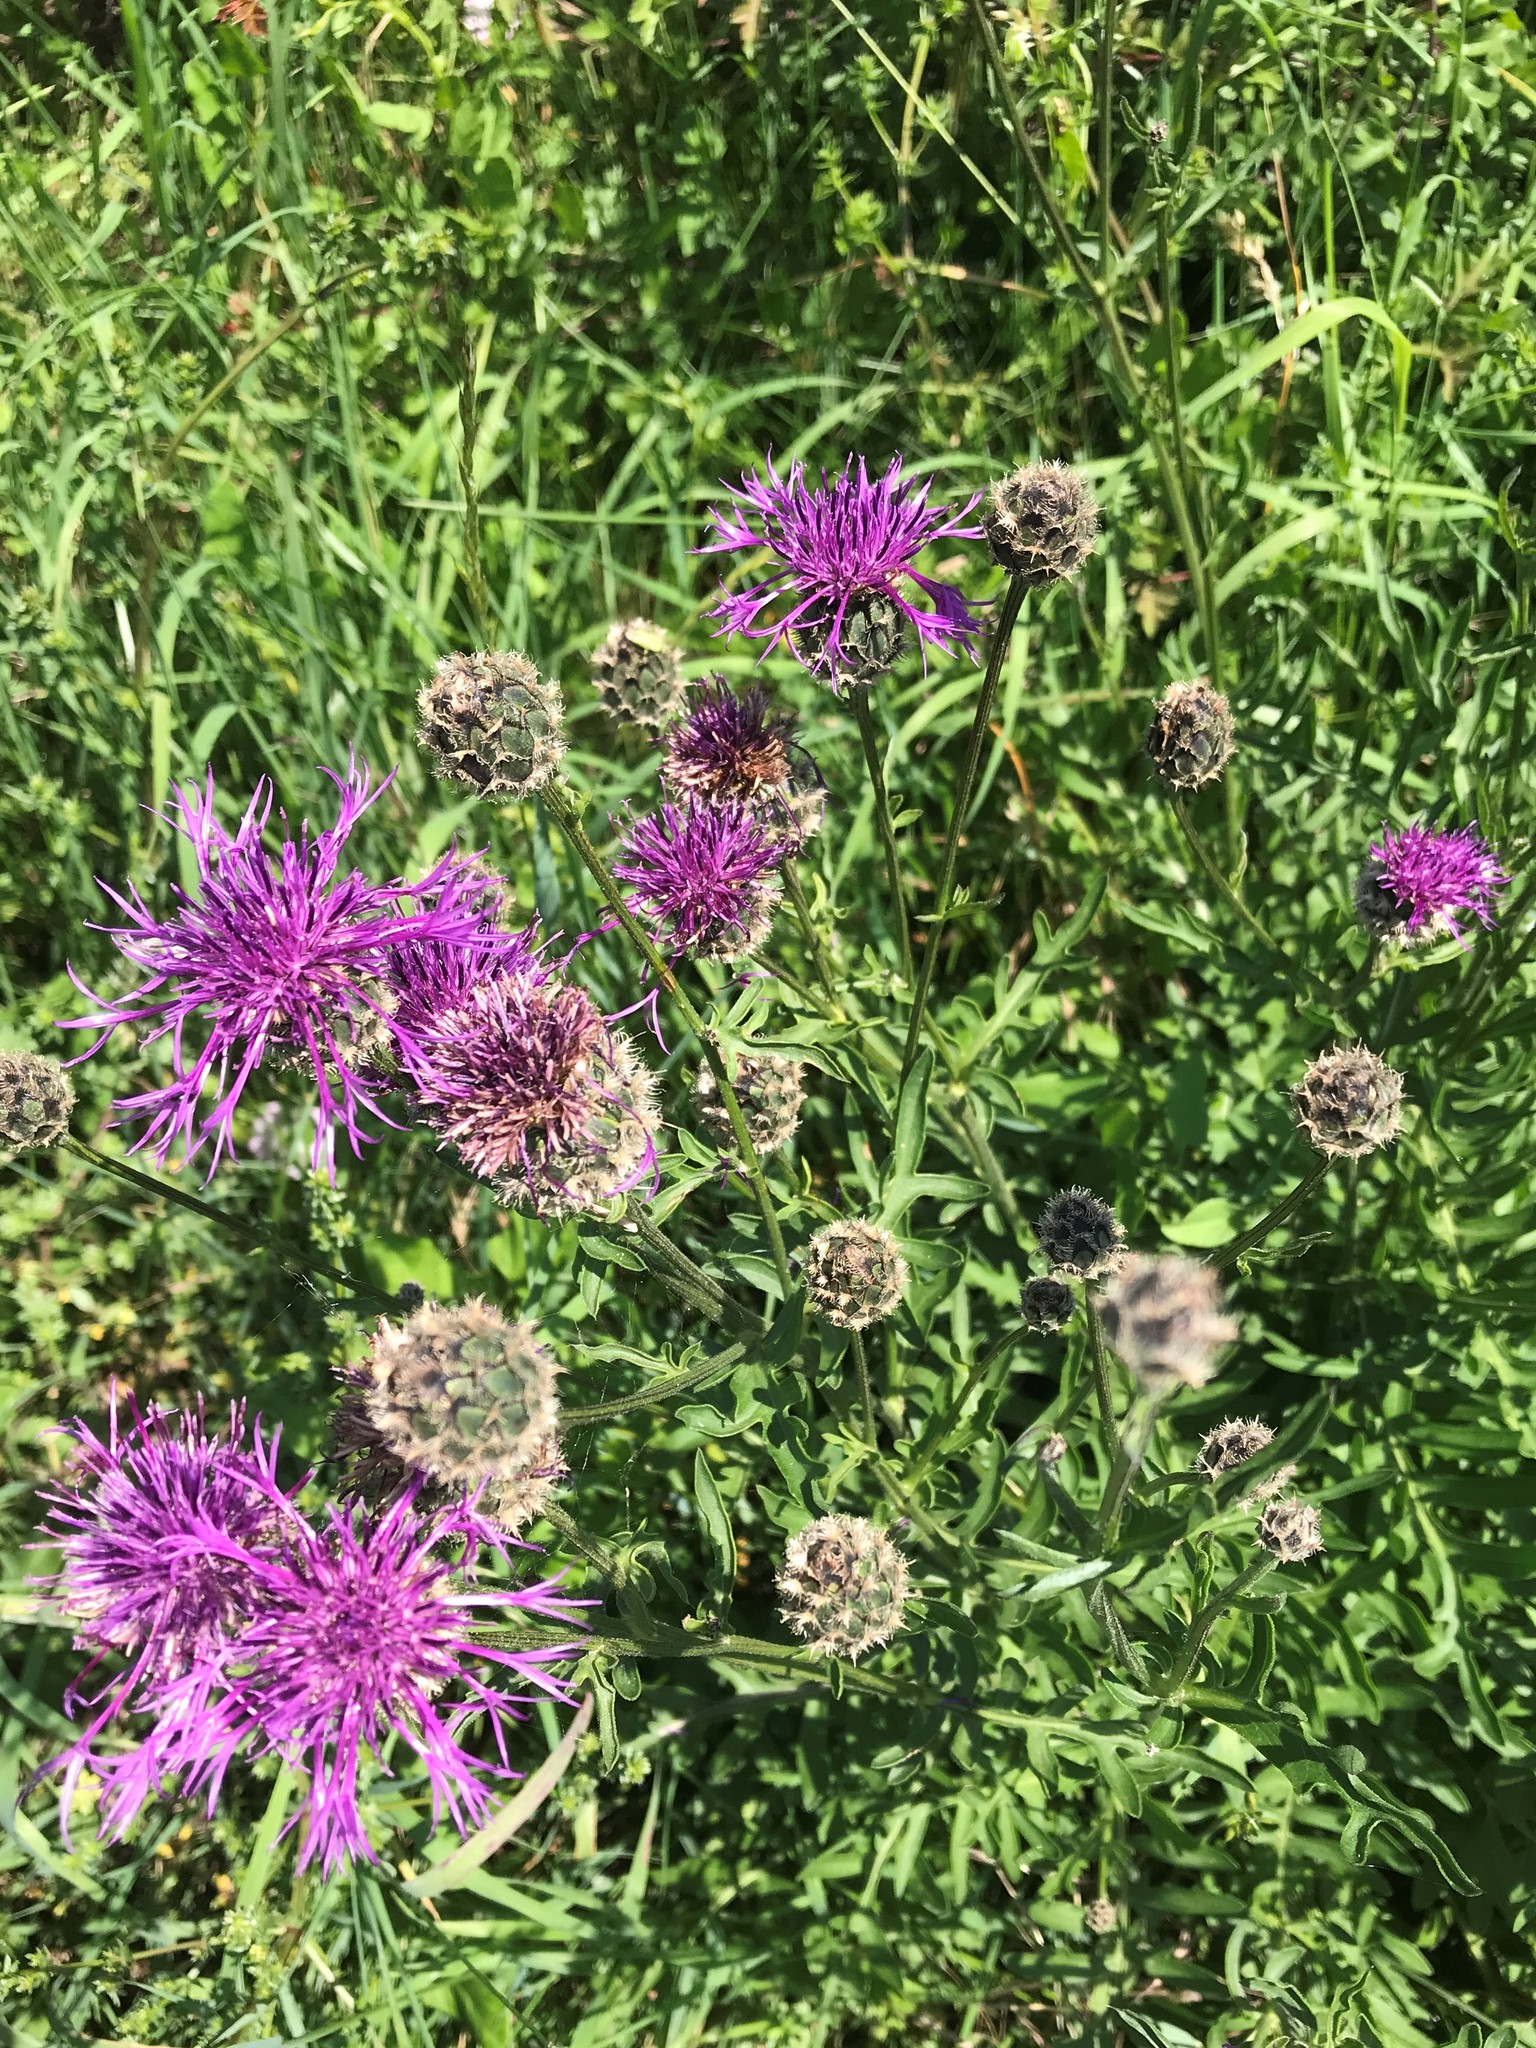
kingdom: Plantae
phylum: Tracheophyta
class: Magnoliopsida
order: Asterales
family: Asteraceae
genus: Centaurea
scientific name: Centaurea scabiosa
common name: Greater knapweed
